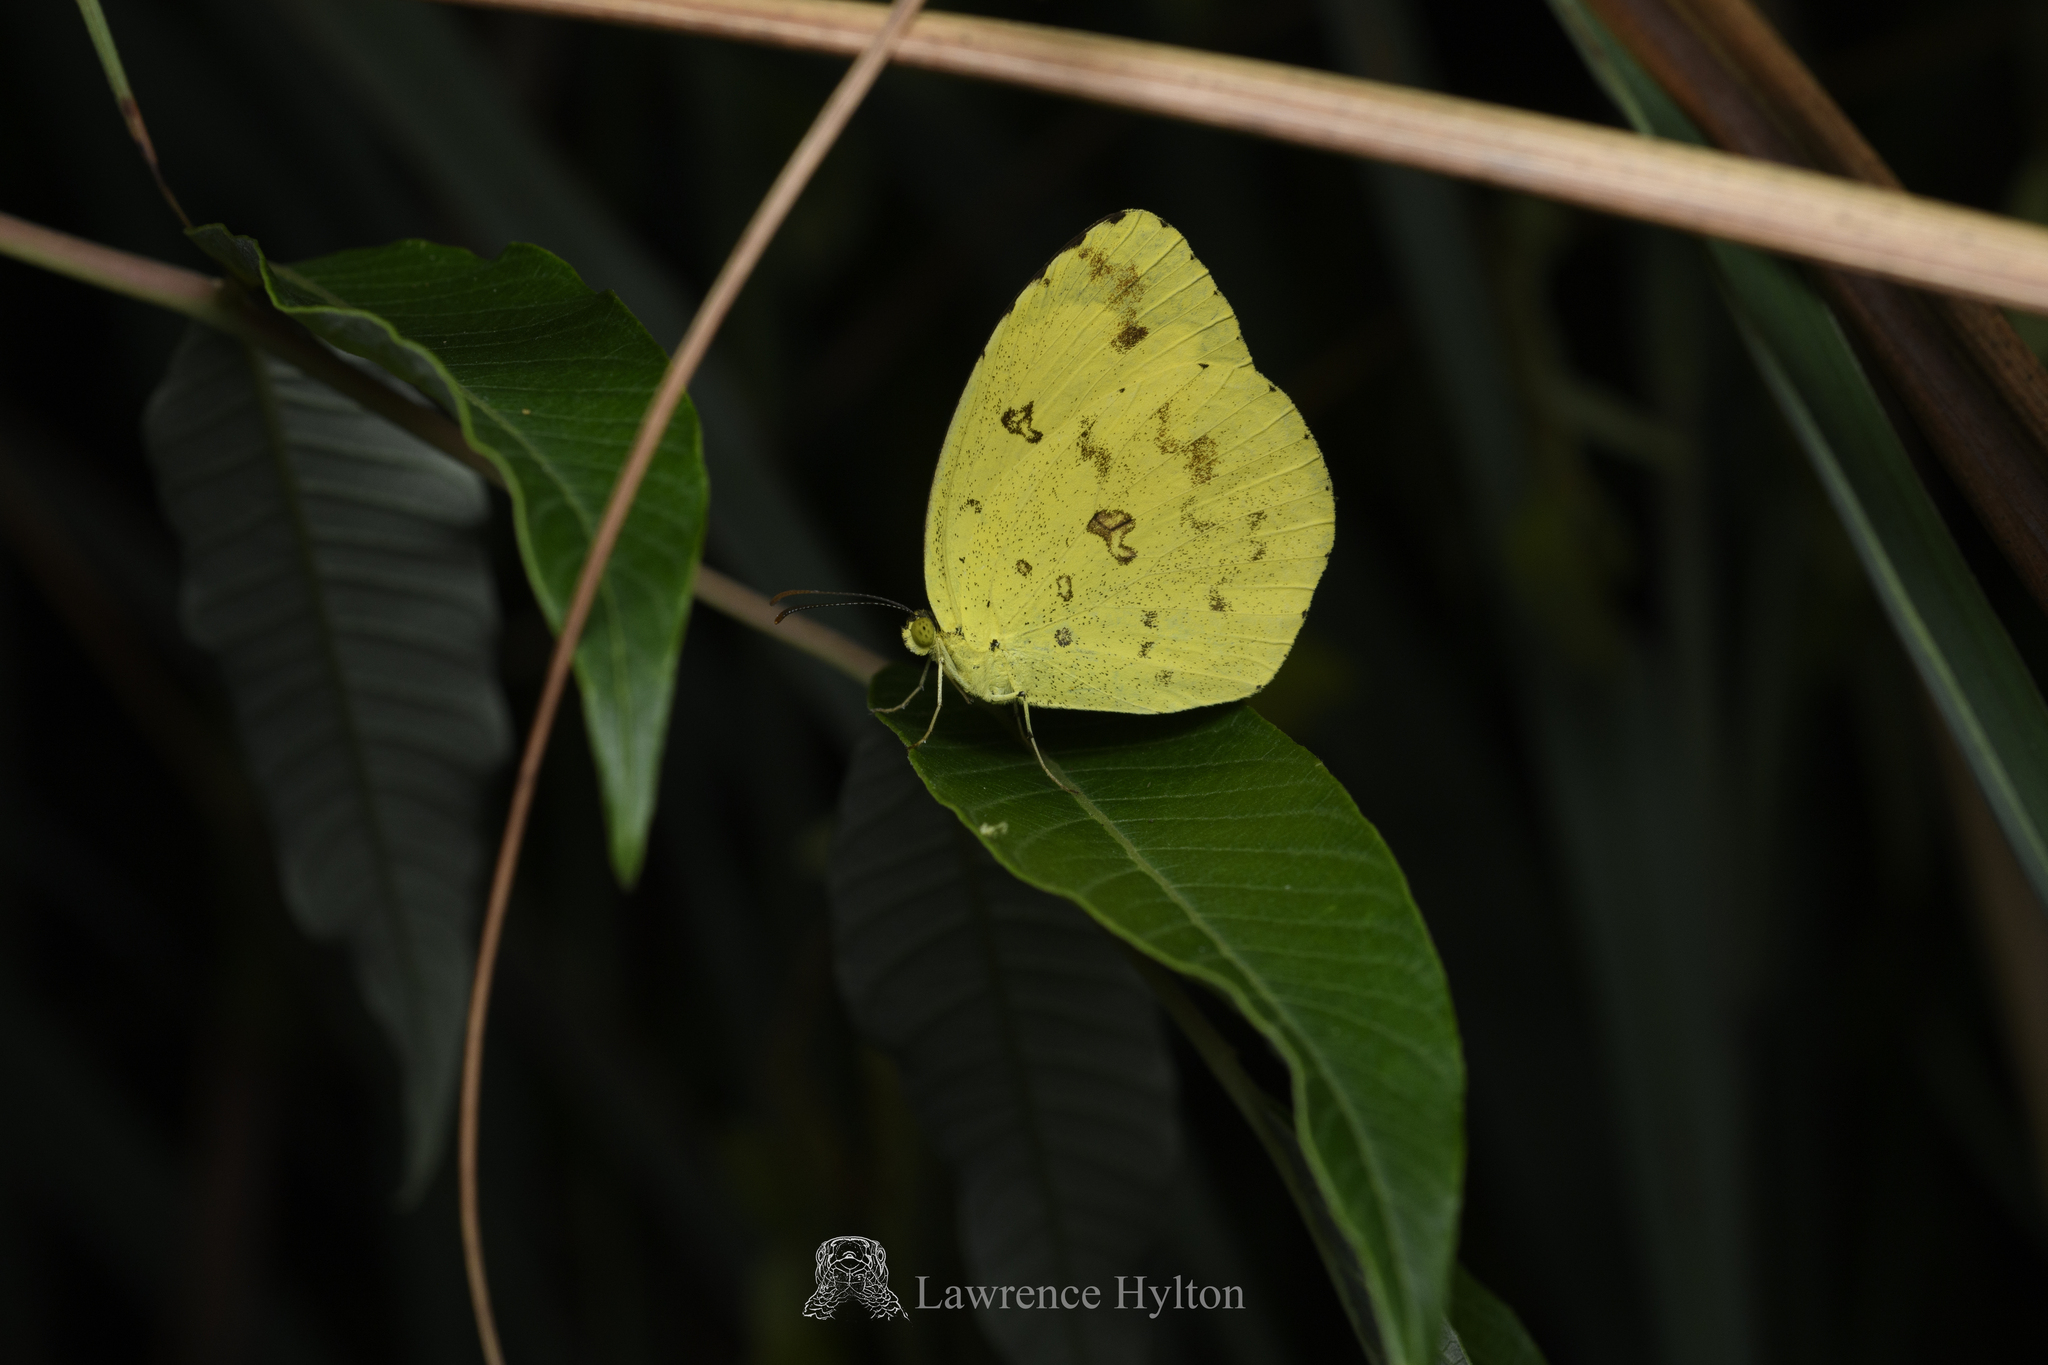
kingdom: Animalia
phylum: Arthropoda
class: Insecta
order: Lepidoptera
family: Pieridae
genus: Eurema
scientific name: Eurema hecabe
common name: Pale grass yellow
